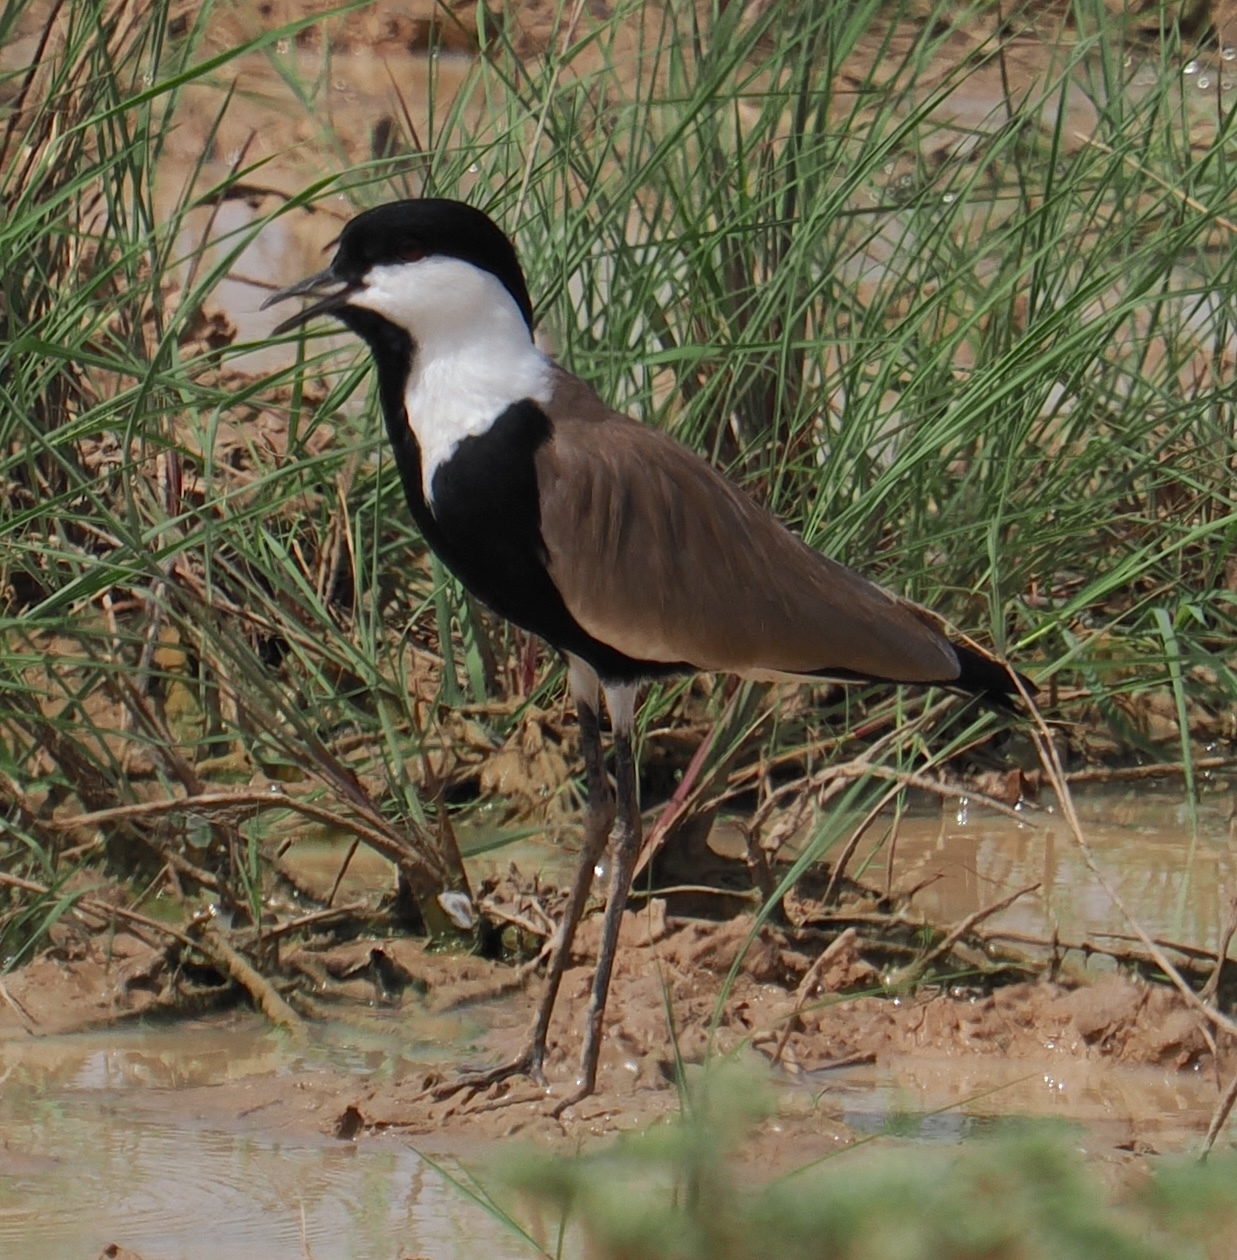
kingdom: Animalia
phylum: Chordata
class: Aves
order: Charadriiformes
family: Charadriidae
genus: Vanellus
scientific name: Vanellus spinosus
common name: Spur-winged lapwing
